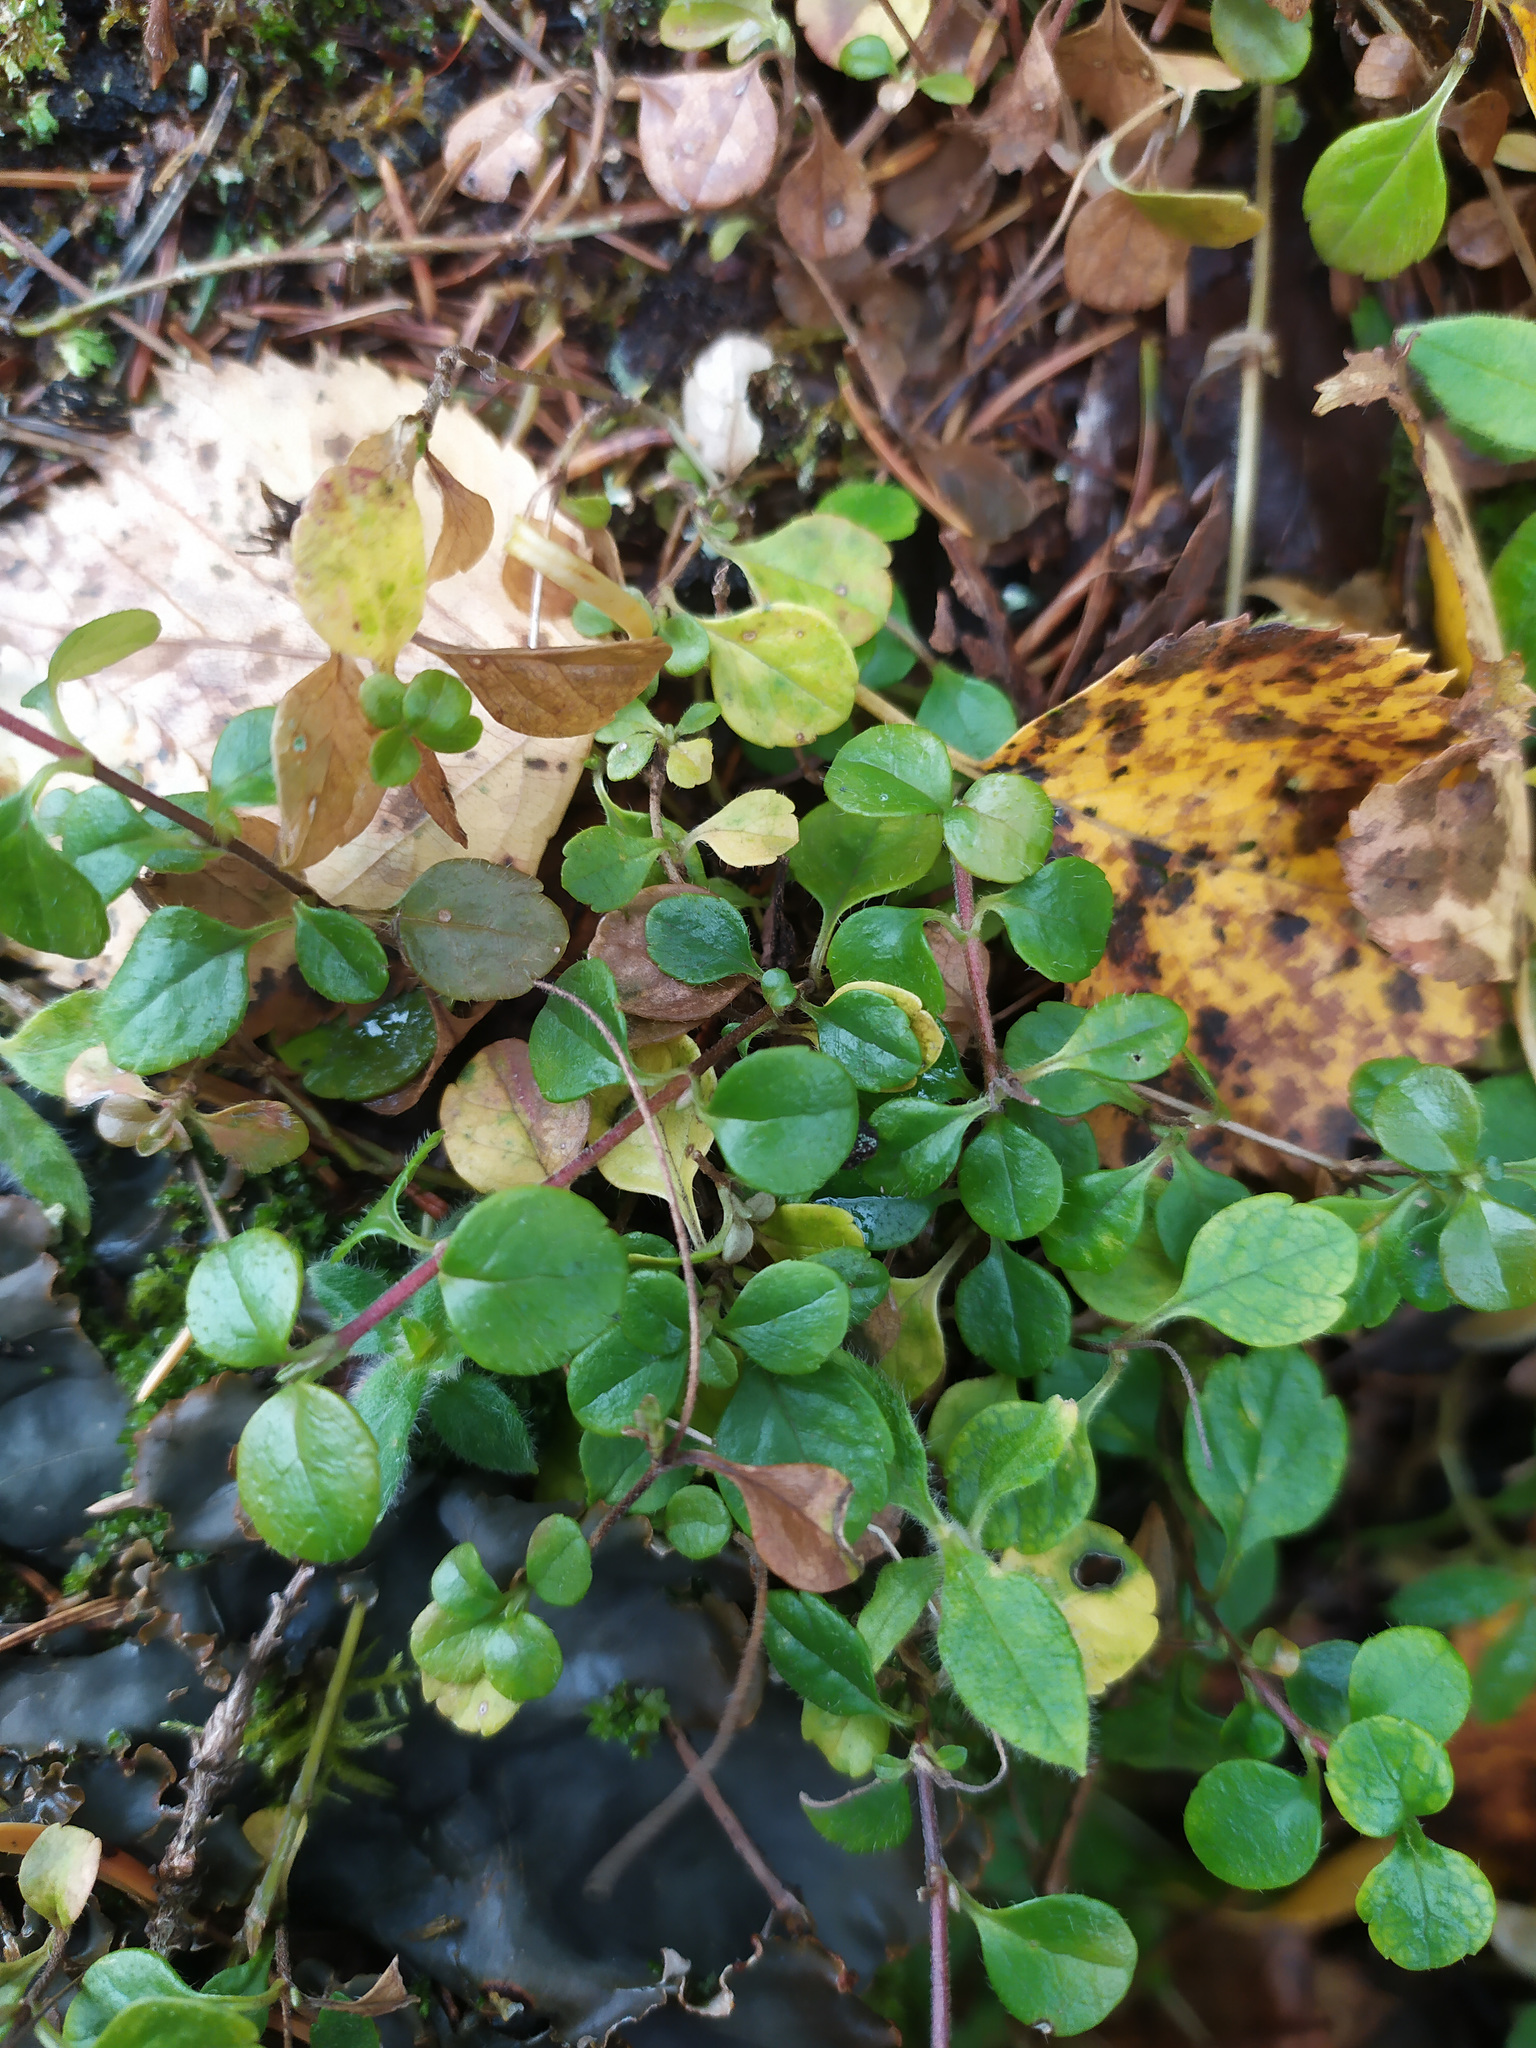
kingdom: Plantae
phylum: Tracheophyta
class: Magnoliopsida
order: Dipsacales
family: Caprifoliaceae
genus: Linnaea
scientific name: Linnaea borealis
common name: Twinflower
